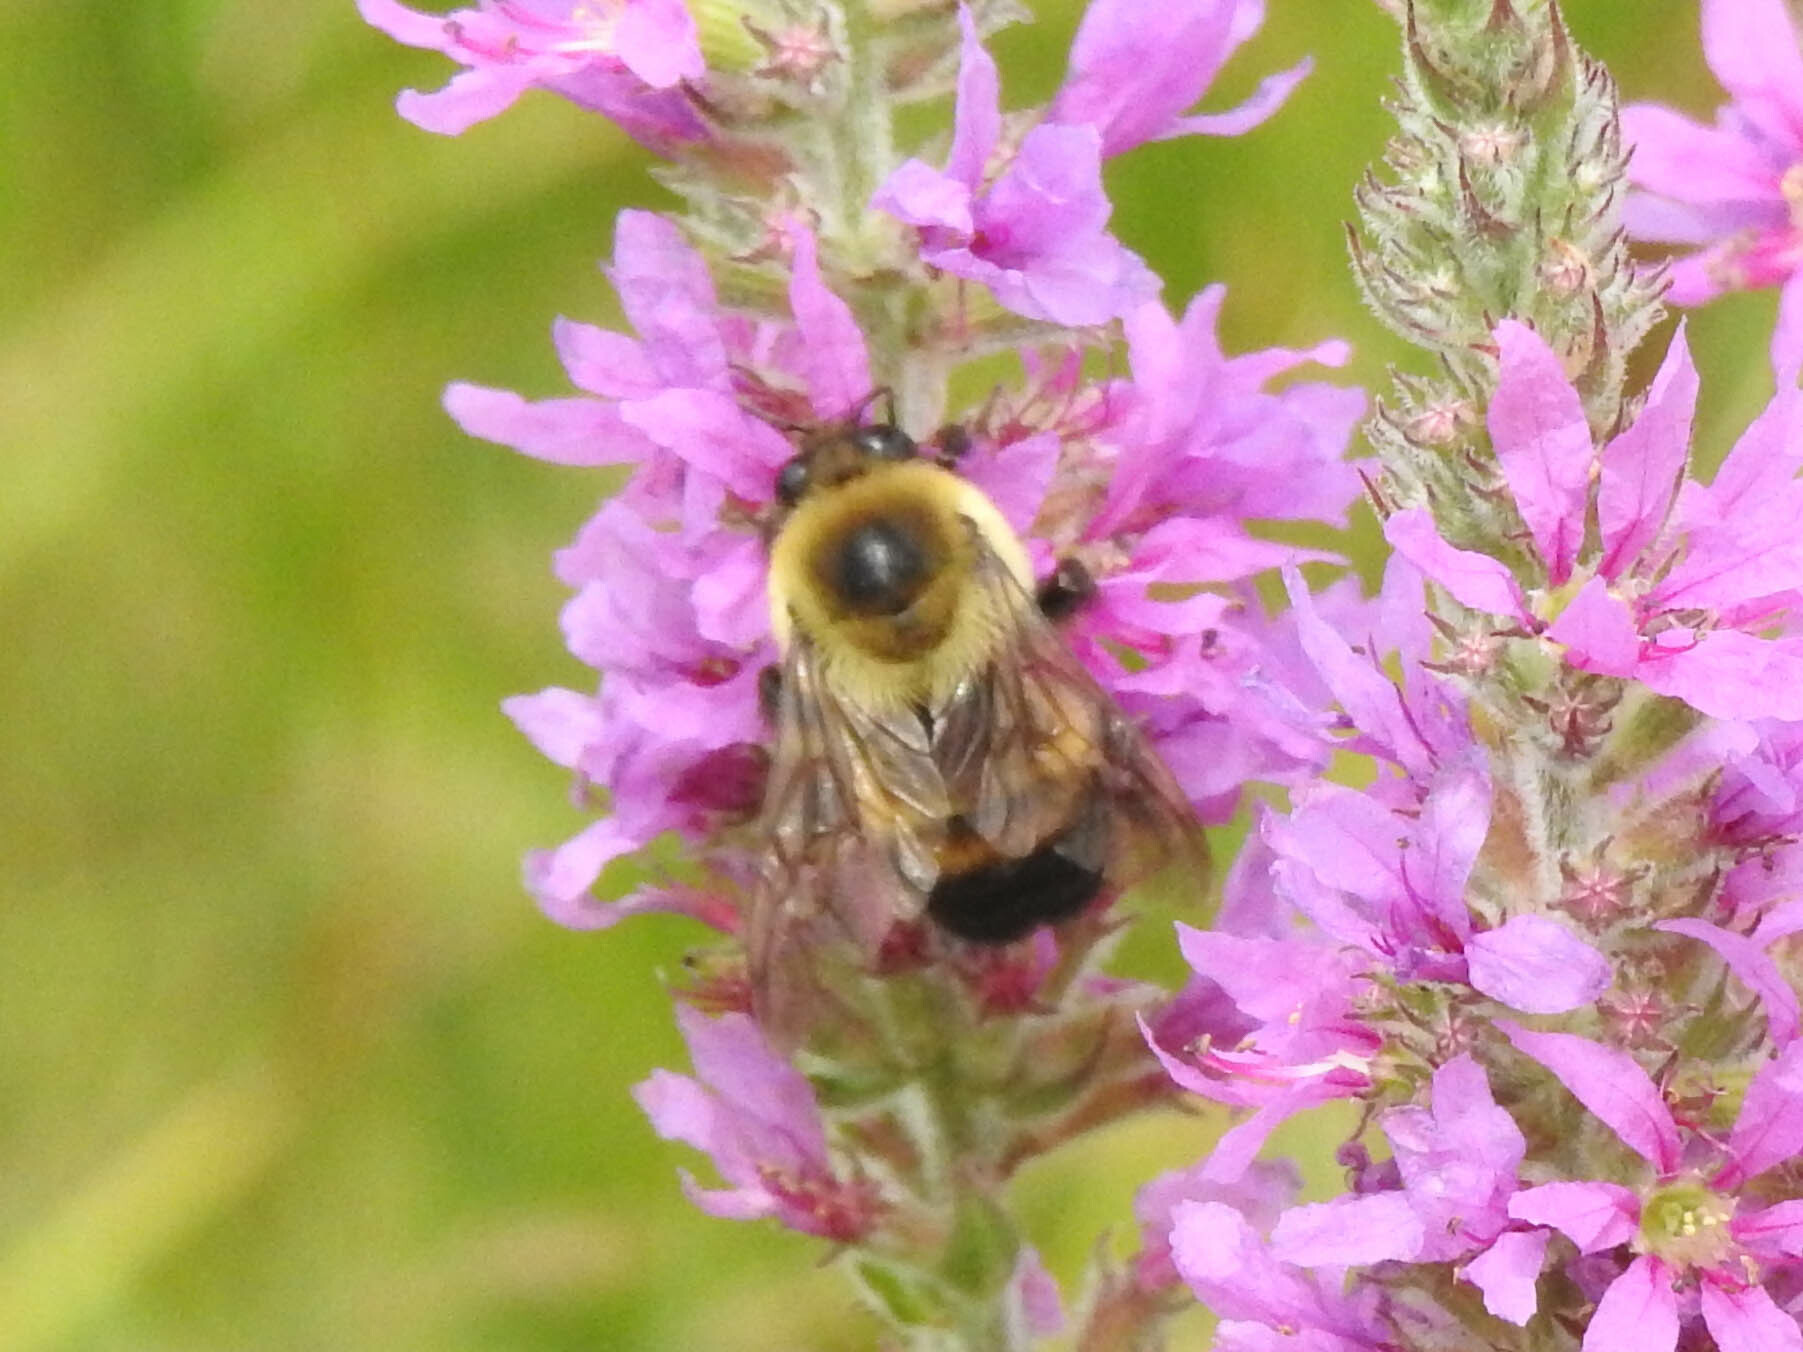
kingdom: Animalia
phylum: Arthropoda
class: Insecta
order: Hymenoptera
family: Apidae
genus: Bombus
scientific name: Bombus griseocollis
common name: Brown-belted bumble bee
